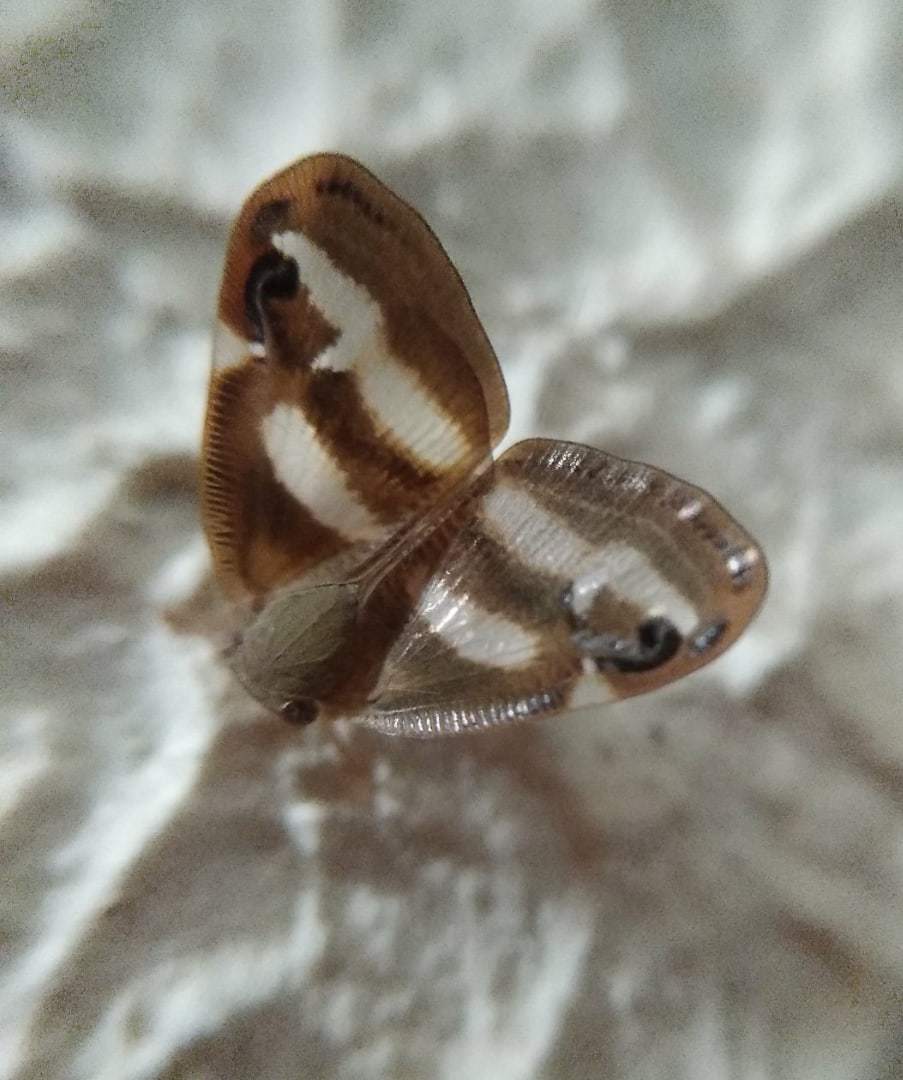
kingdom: Animalia
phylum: Arthropoda
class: Insecta
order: Hemiptera
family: Ricaniidae
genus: Orosanga
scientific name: Orosanga japonica
